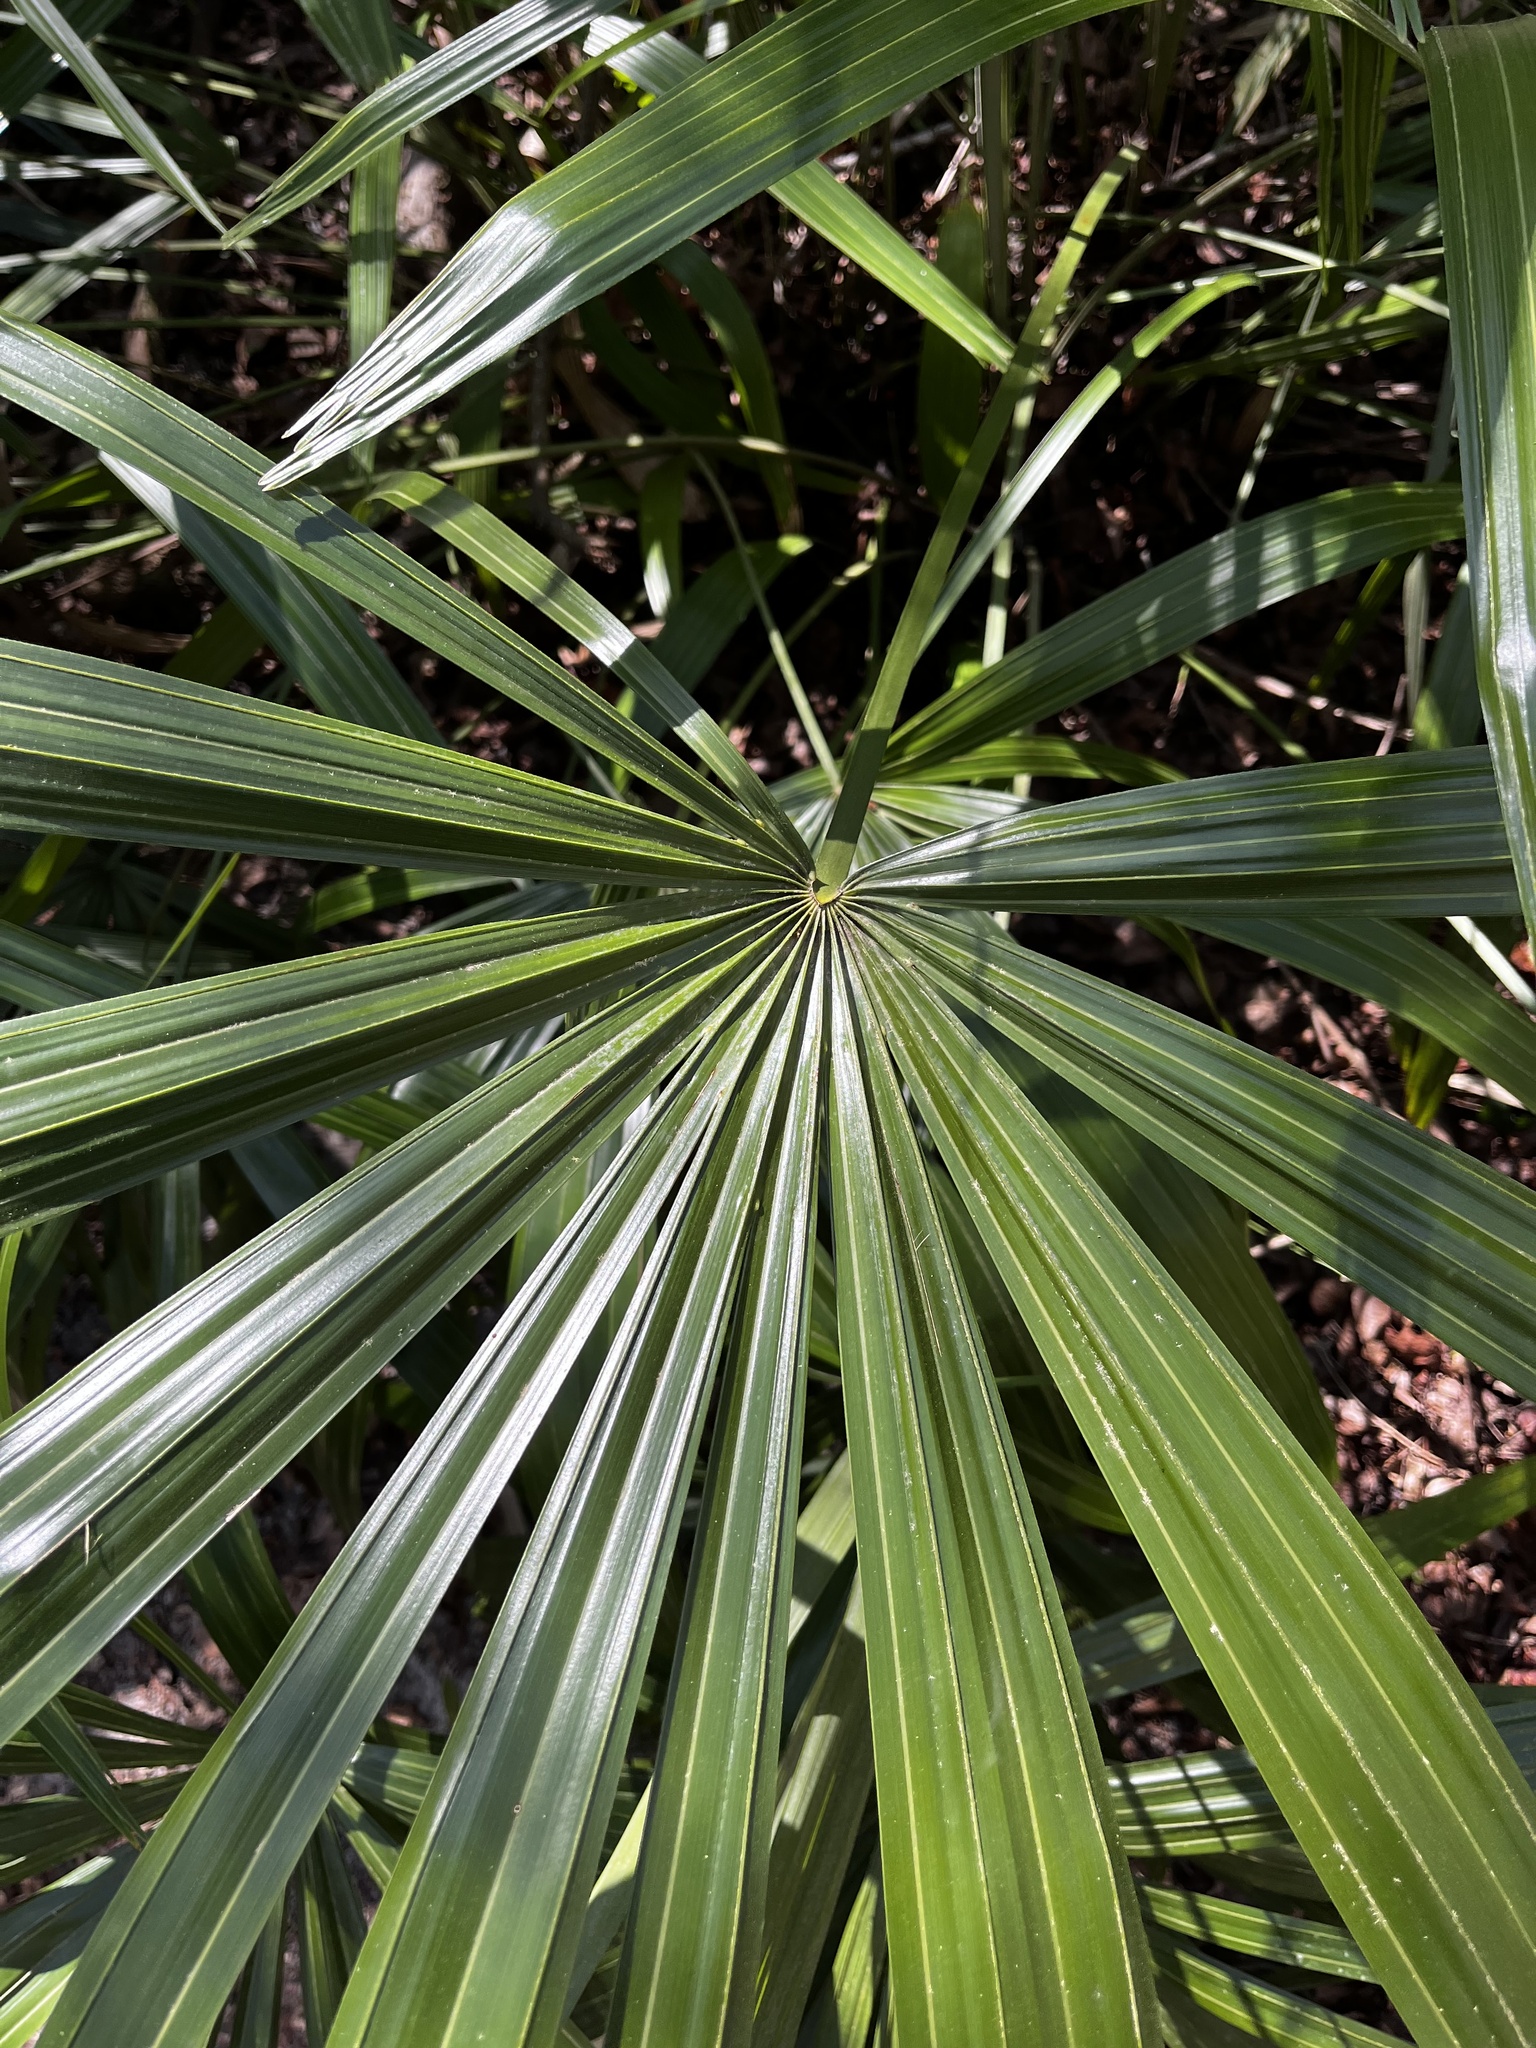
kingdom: Plantae
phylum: Tracheophyta
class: Liliopsida
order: Arecales
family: Arecaceae
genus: Rhapidophyllum
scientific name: Rhapidophyllum hystrix
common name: Porcupine palm
